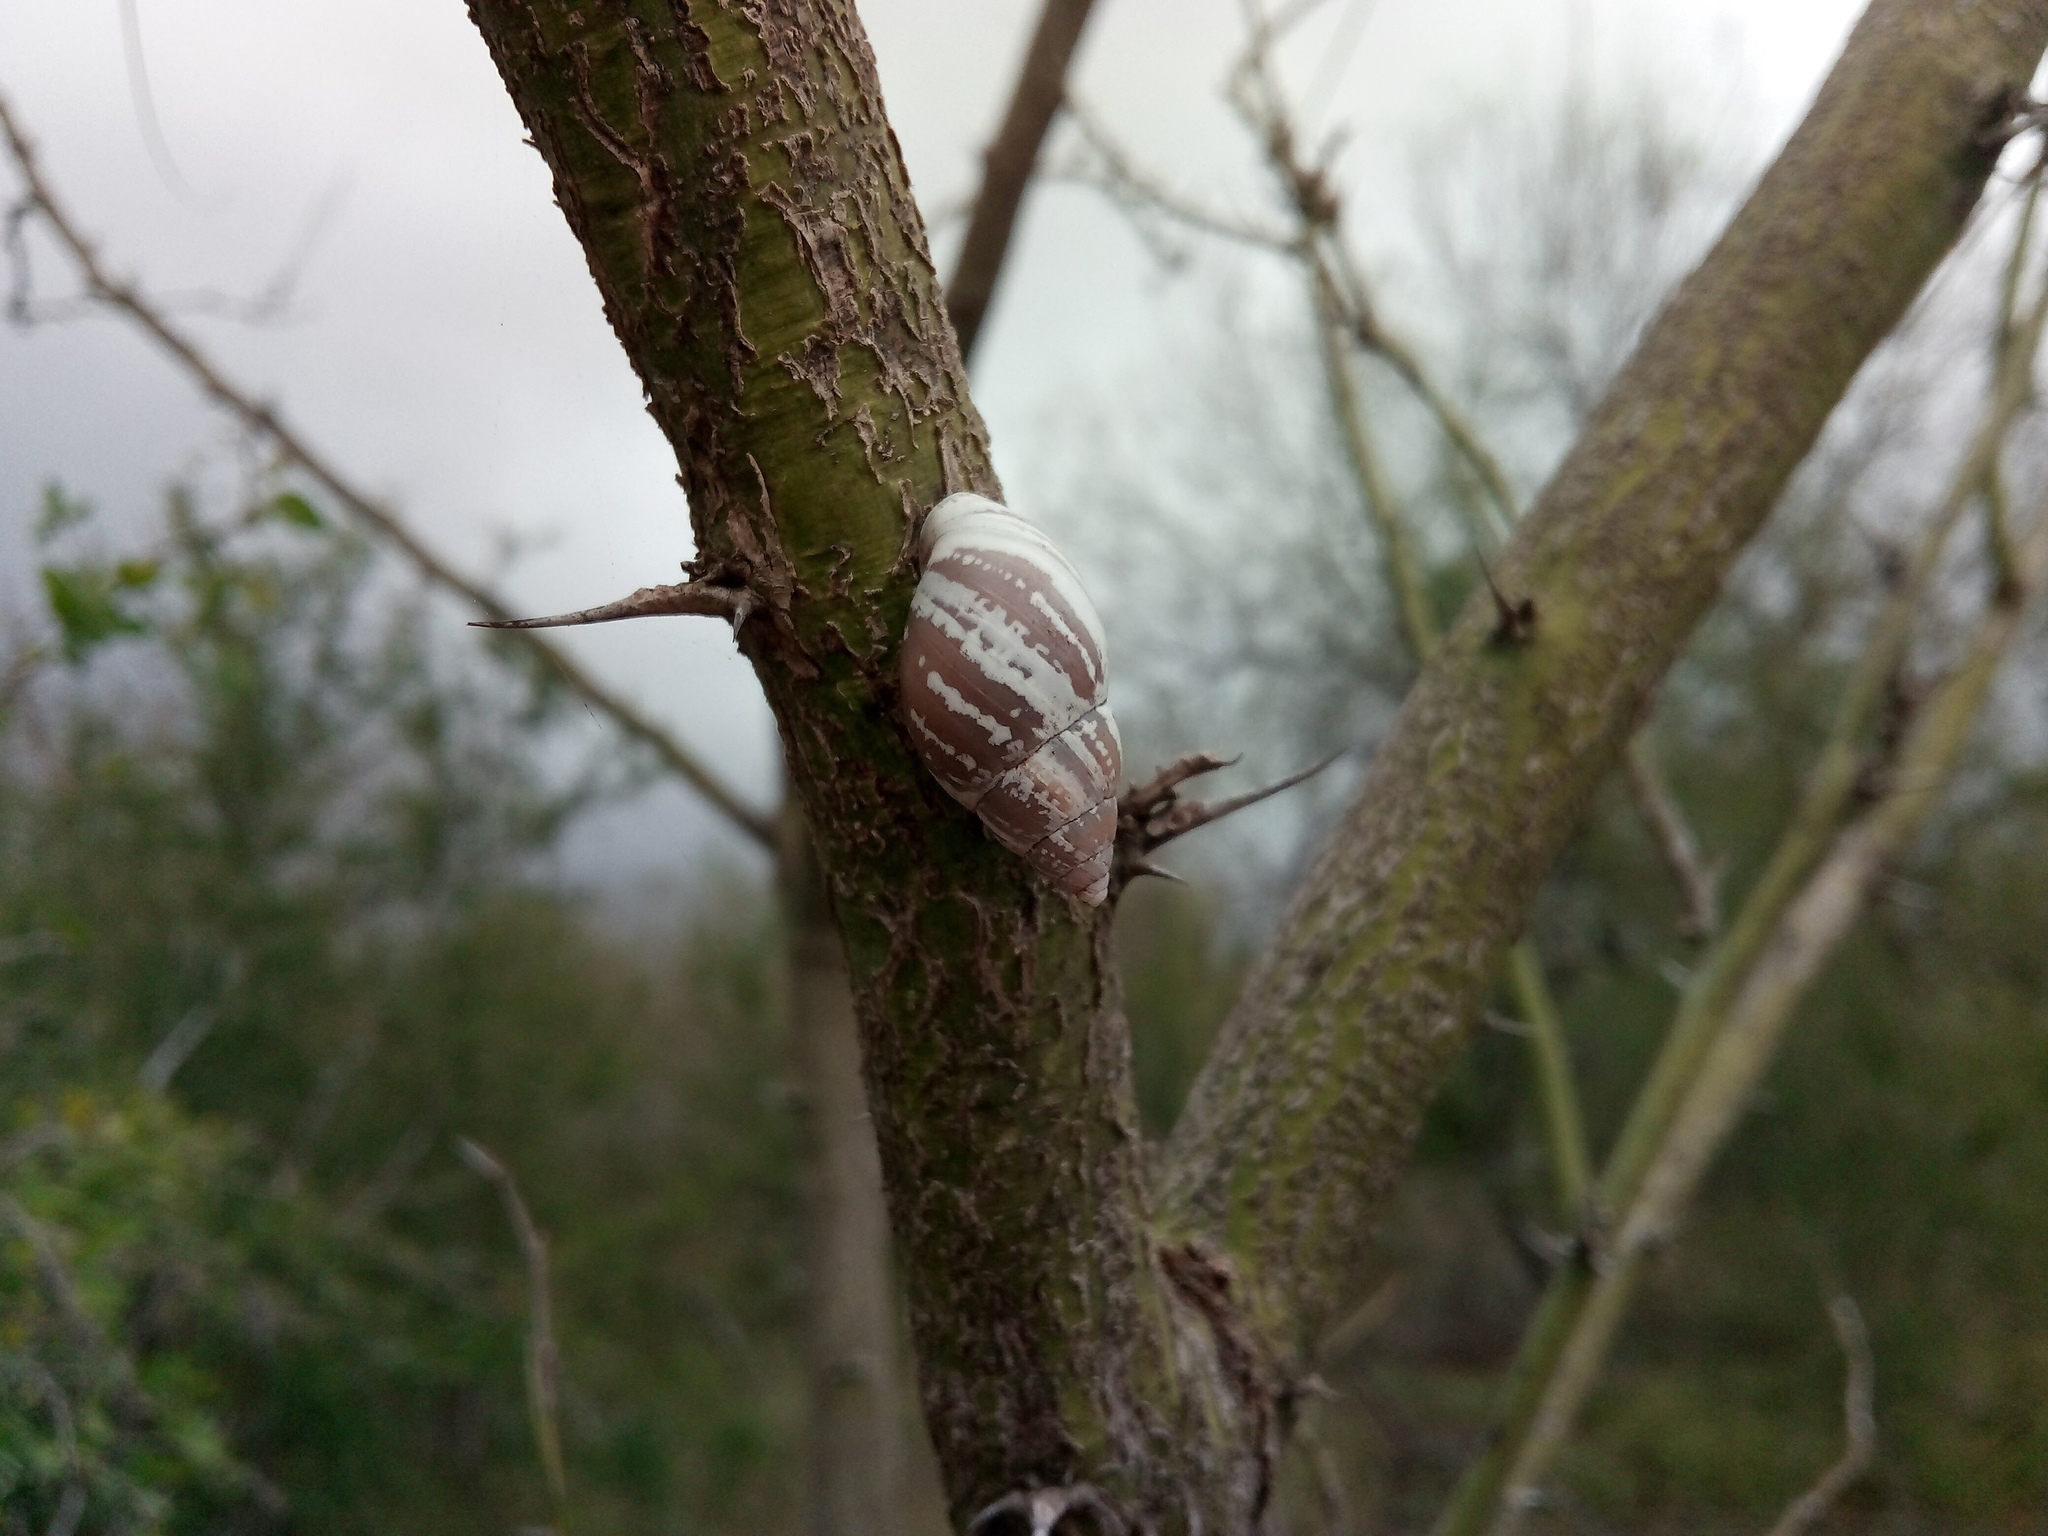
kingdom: Animalia
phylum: Mollusca
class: Gastropoda
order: Stylommatophora
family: Bulimulidae
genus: Rabdotus
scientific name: Rabdotus
